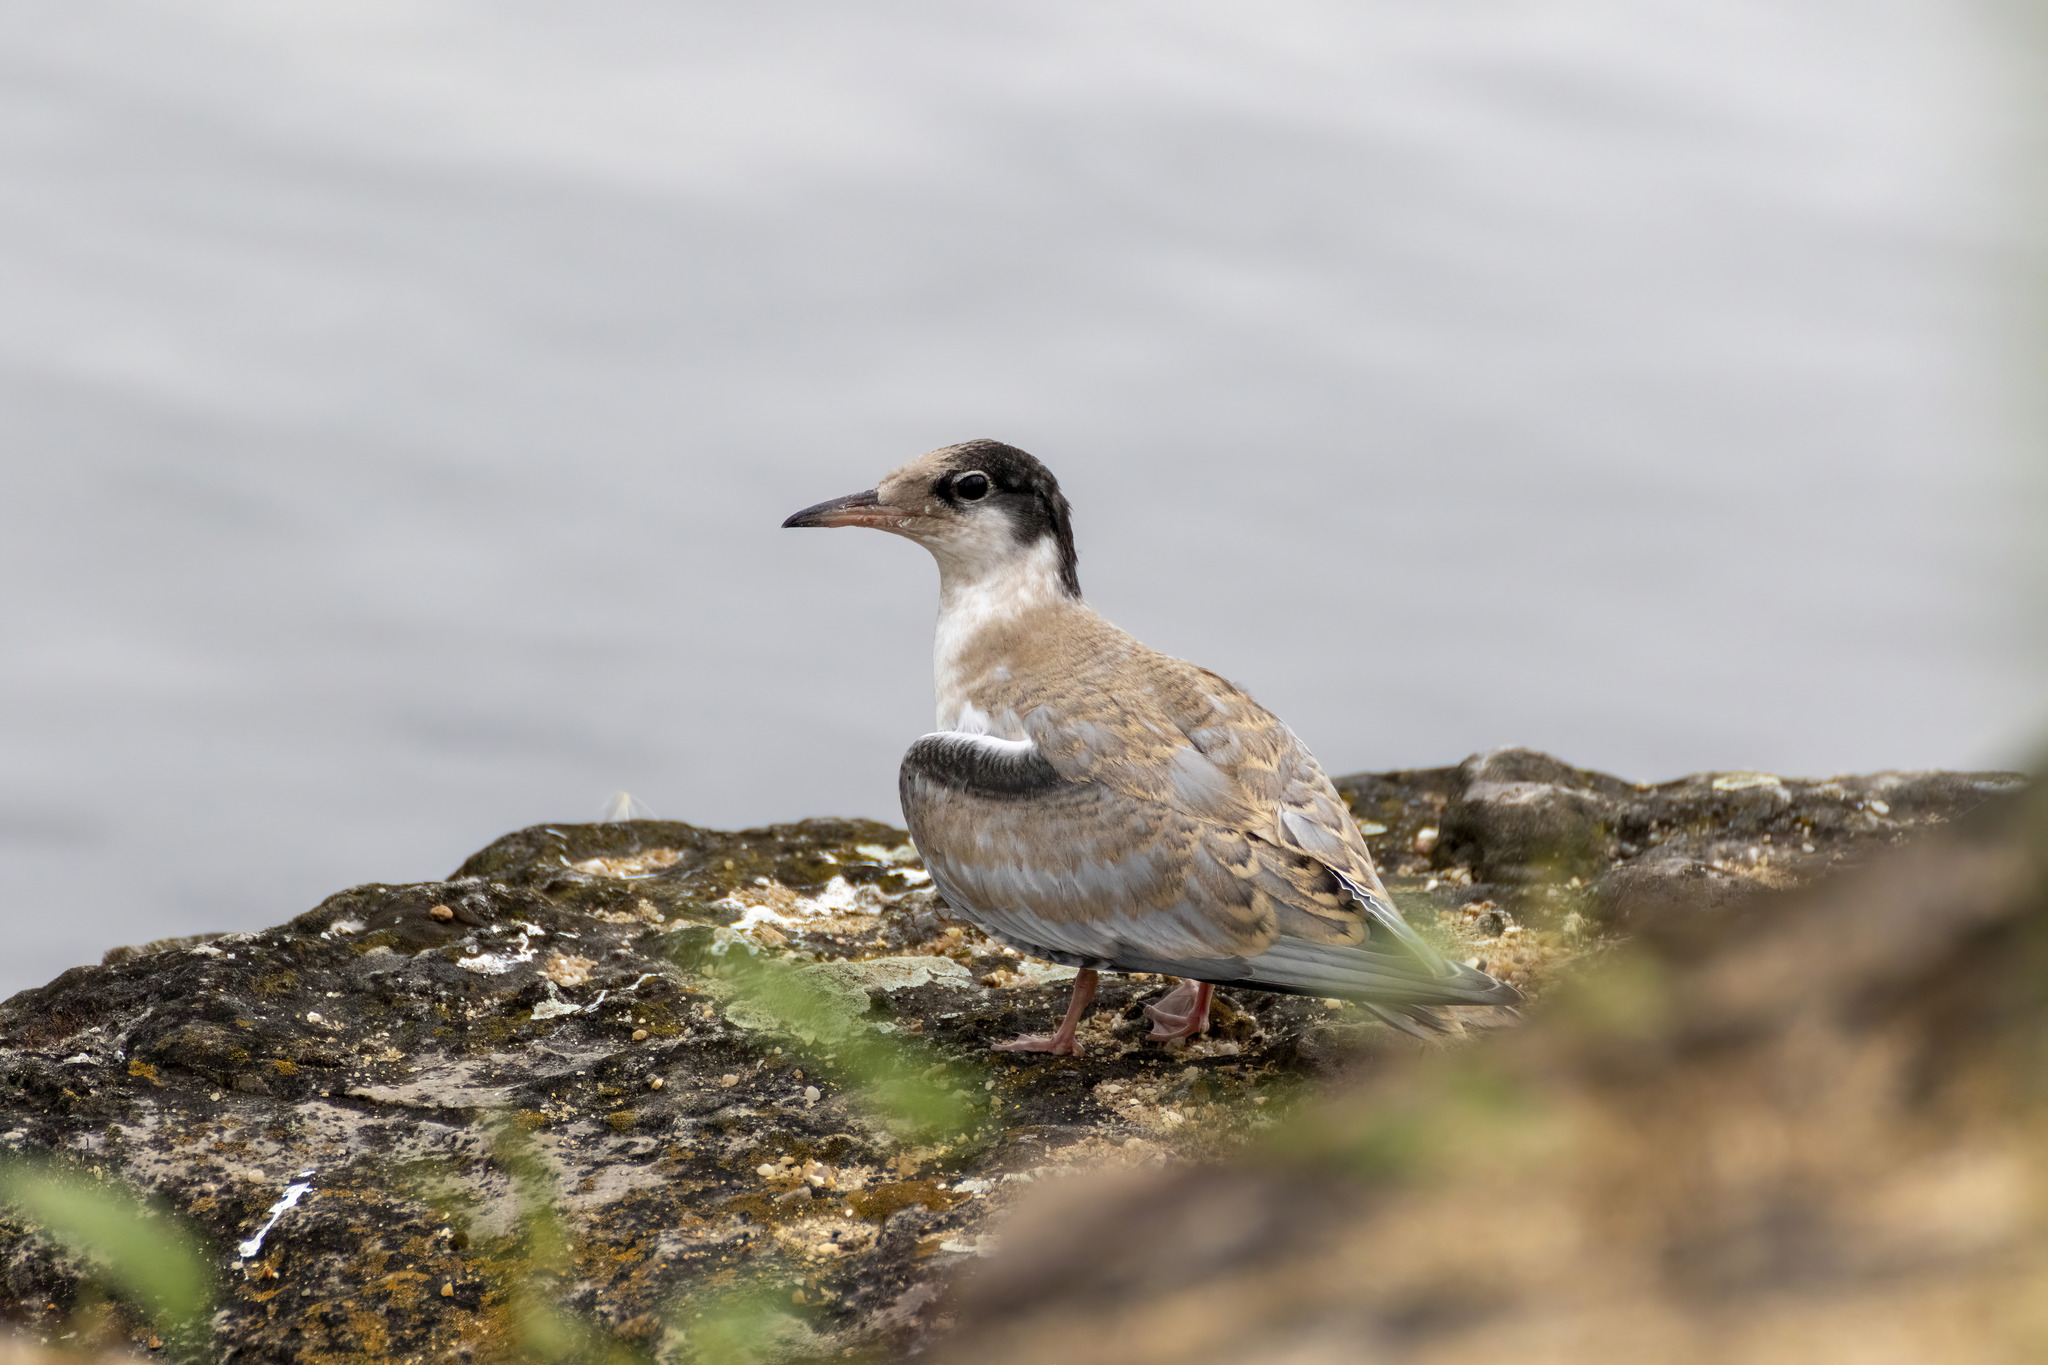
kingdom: Animalia
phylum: Chordata
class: Aves
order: Charadriiformes
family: Laridae
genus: Sterna
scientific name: Sterna hirundo
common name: Common tern
